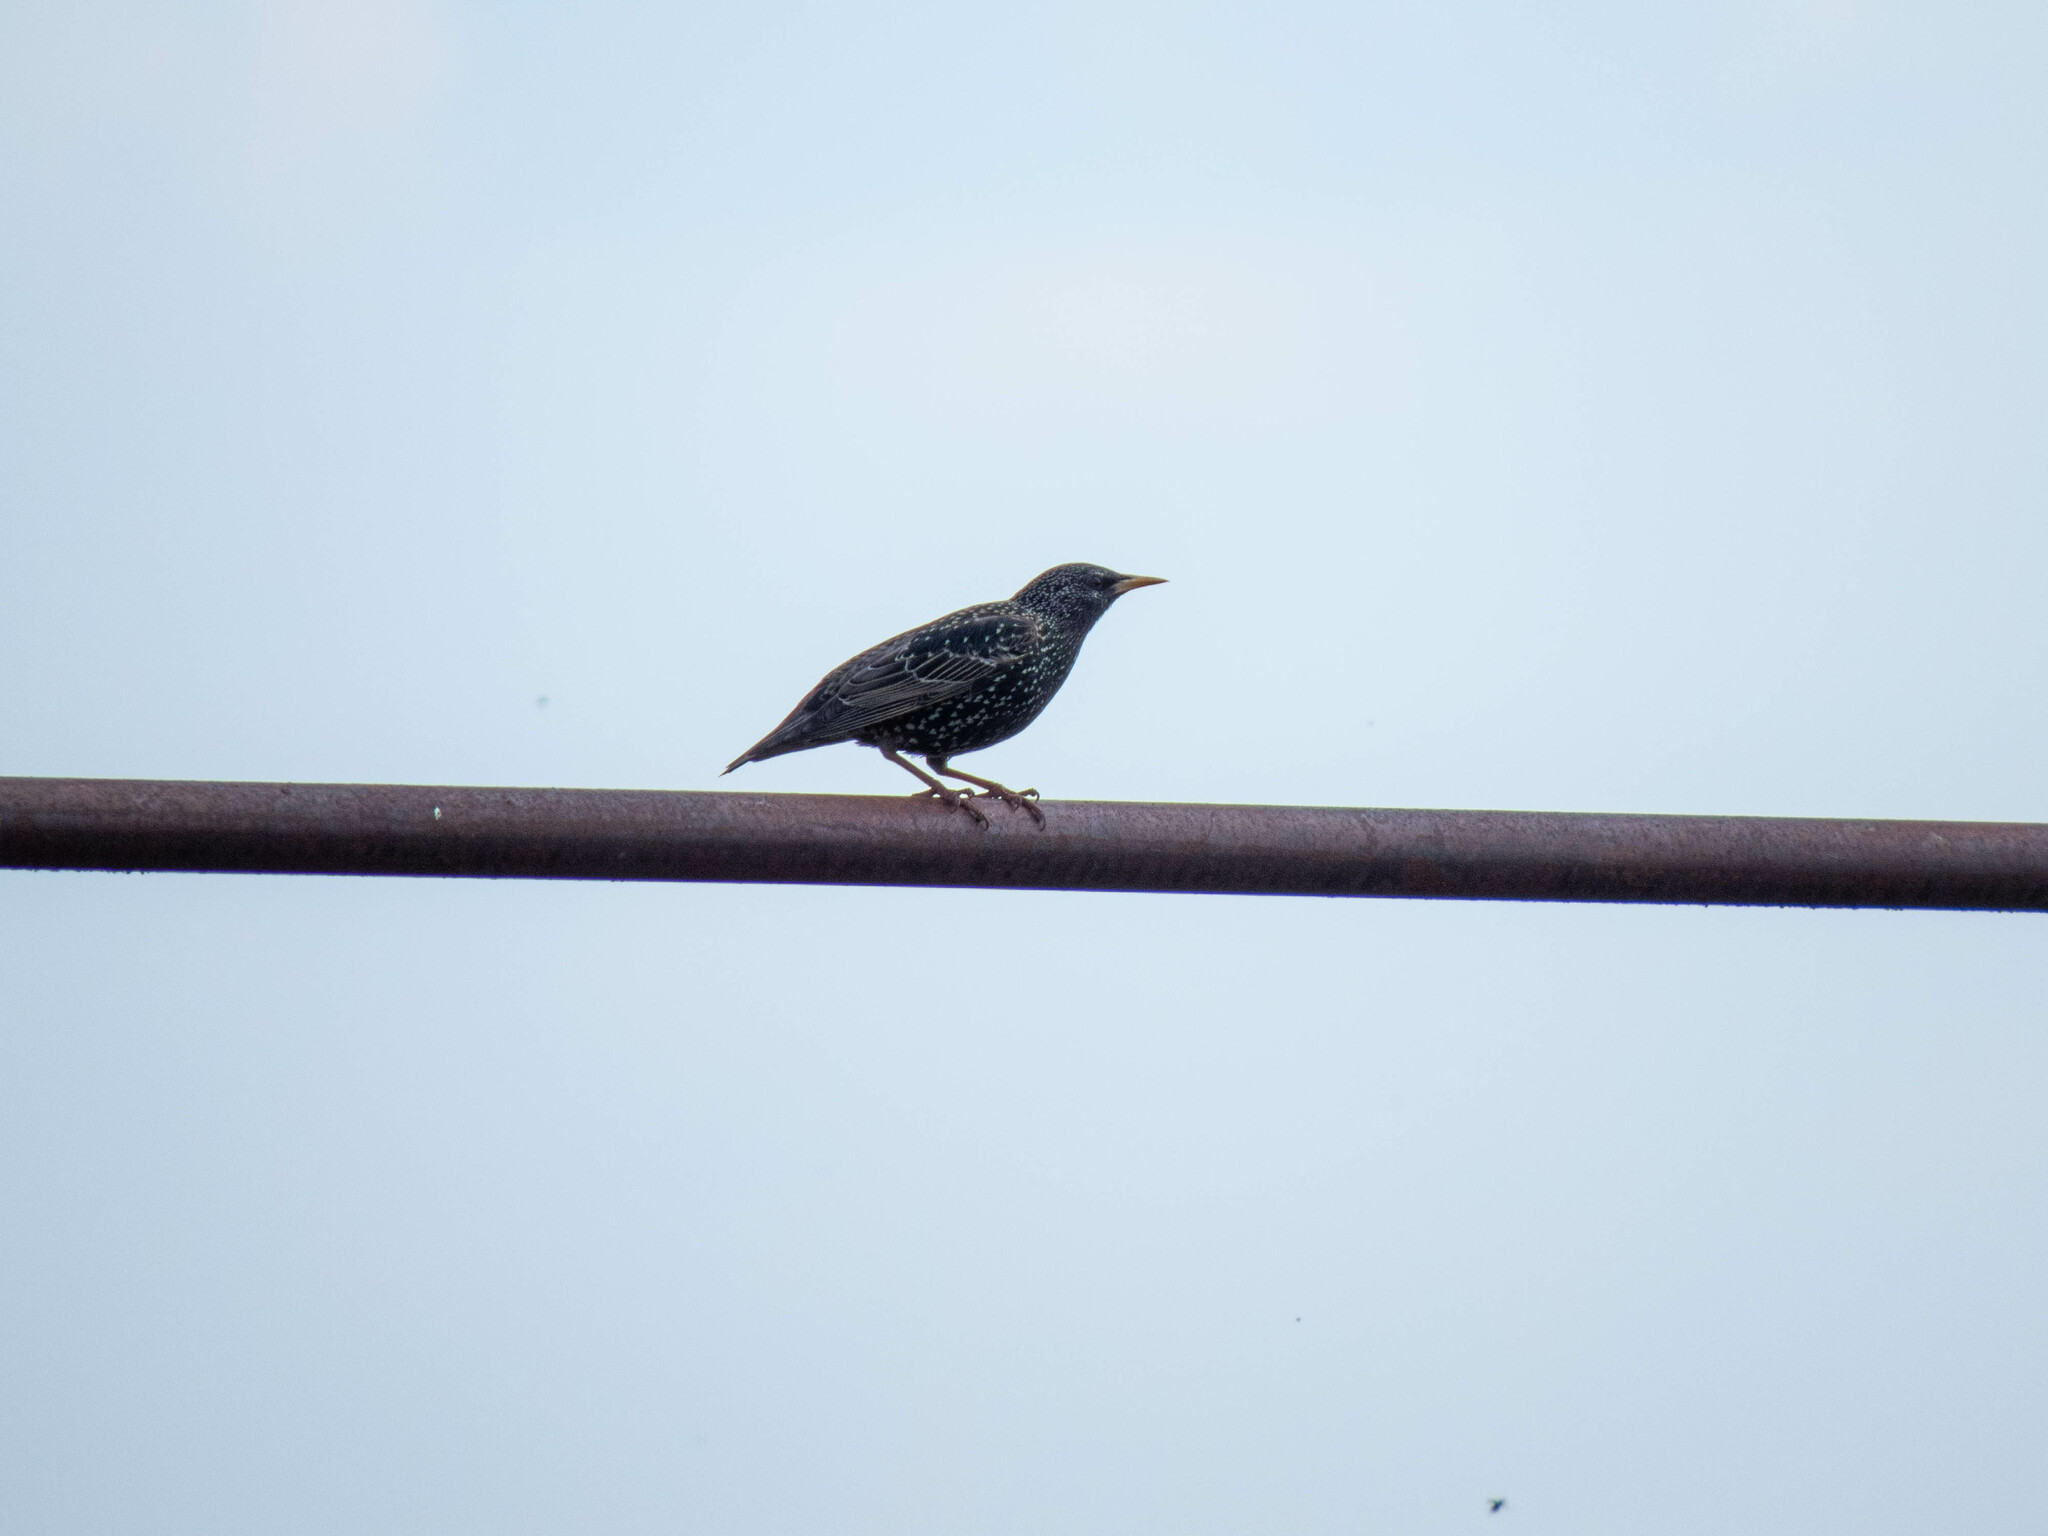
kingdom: Animalia
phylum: Chordata
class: Aves
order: Passeriformes
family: Sturnidae
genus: Sturnus
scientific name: Sturnus vulgaris
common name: Common starling
